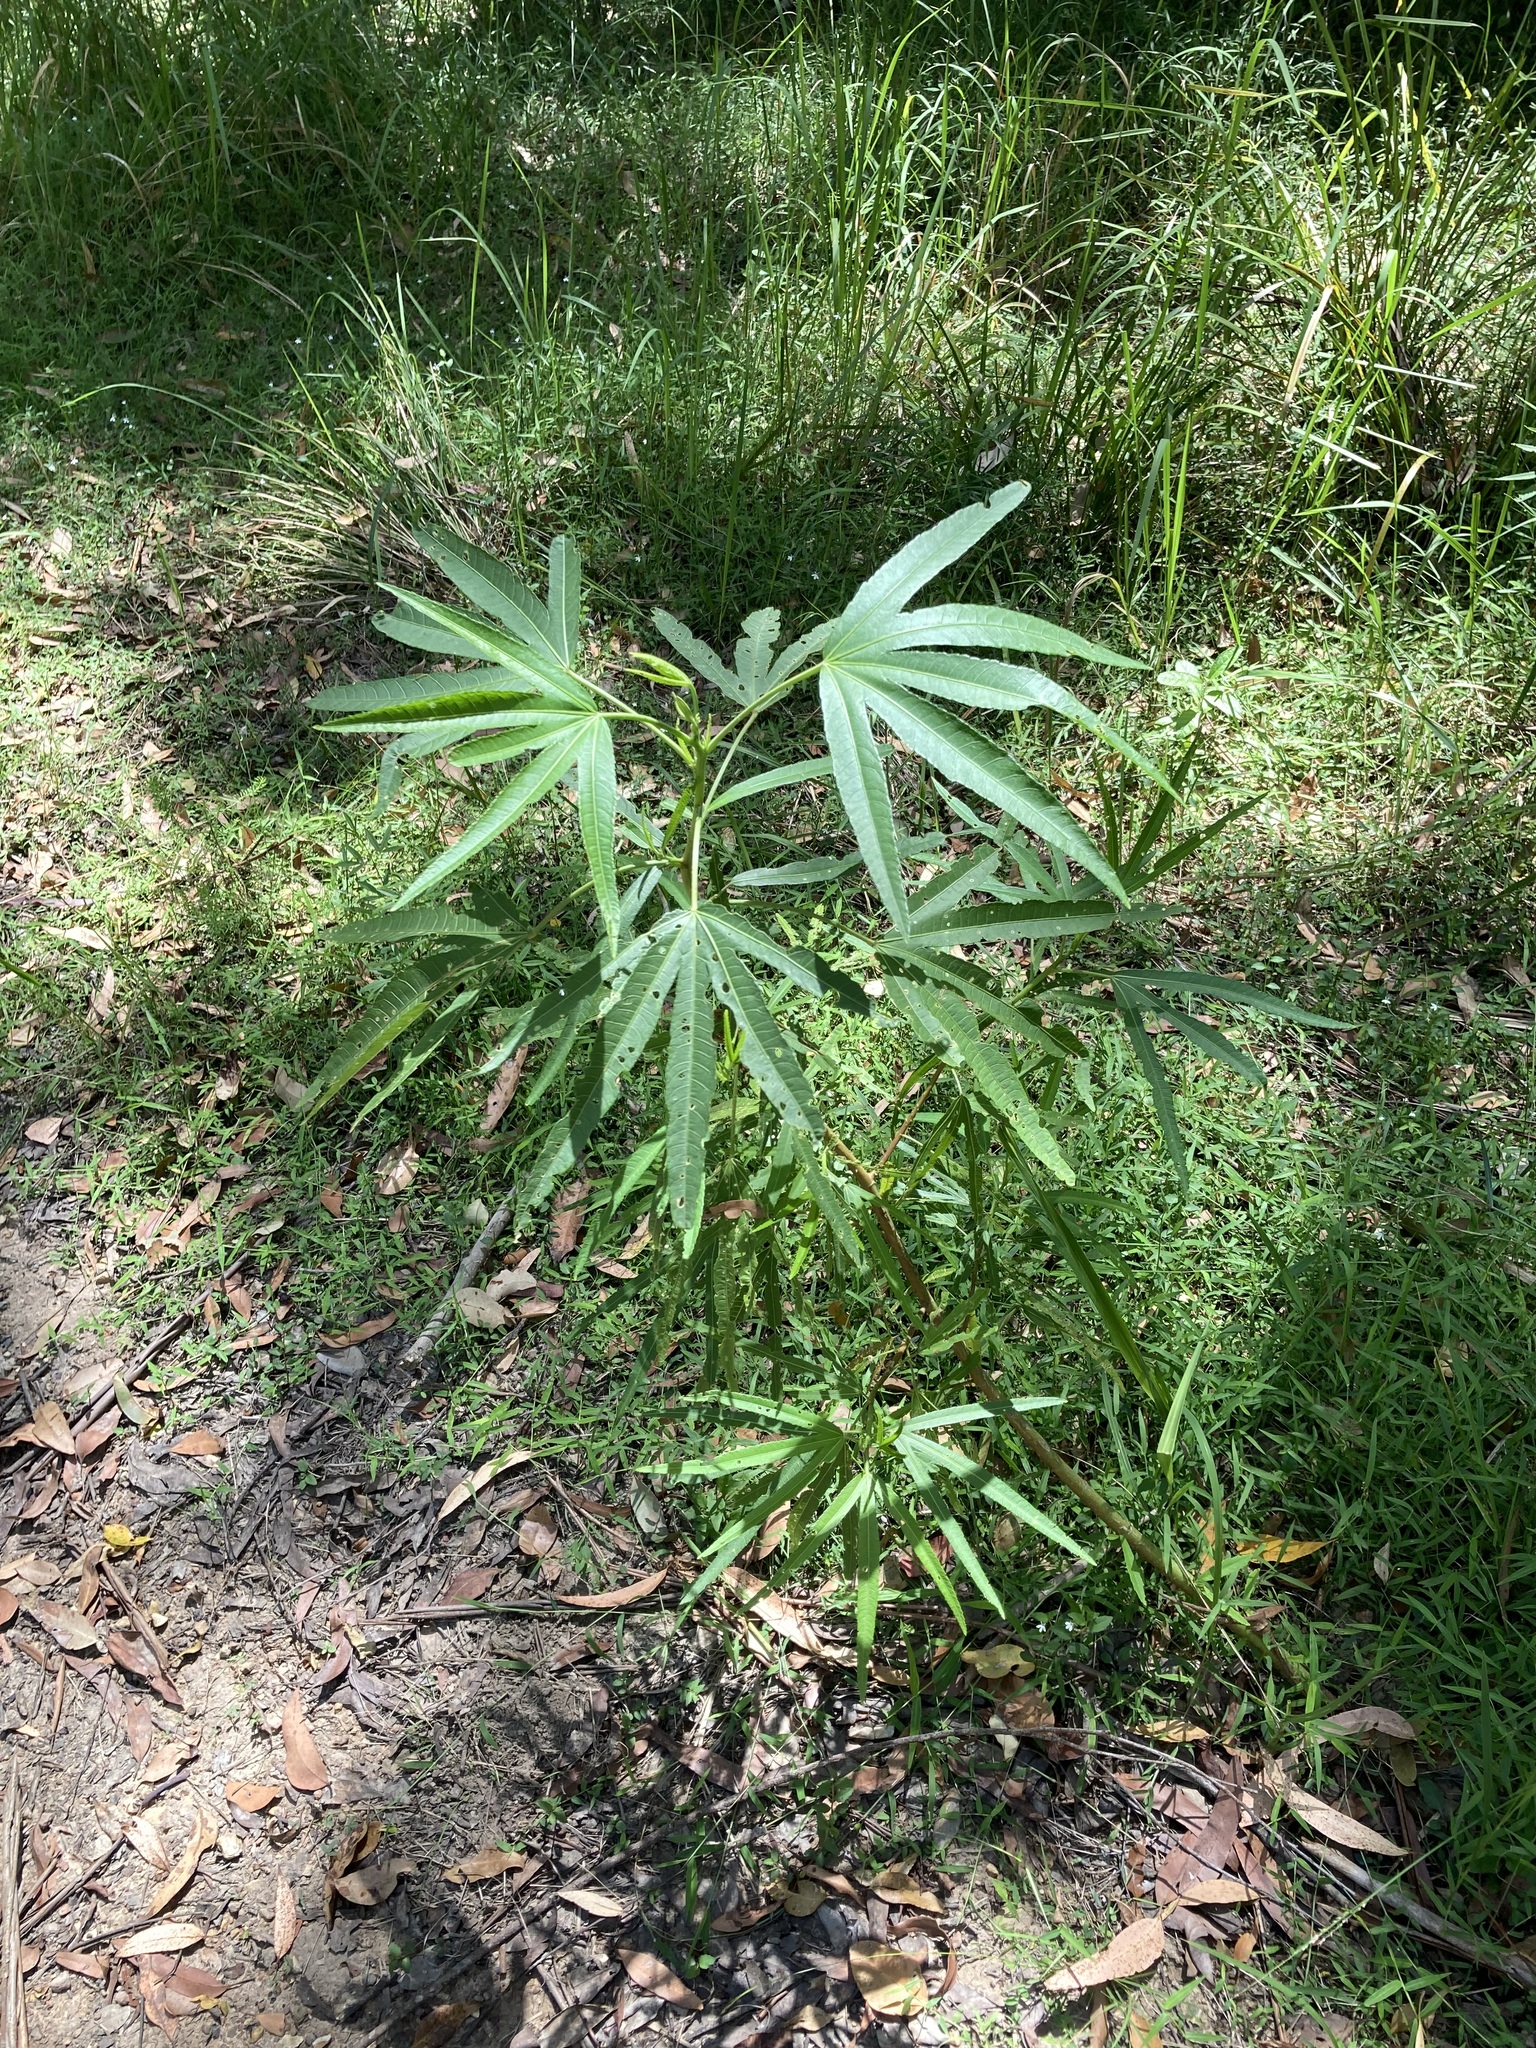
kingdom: Plantae
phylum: Tracheophyta
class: Magnoliopsida
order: Malvales
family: Malvaceae
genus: Hibiscus
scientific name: Hibiscus heterophyllus
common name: Queensland-sorrel
